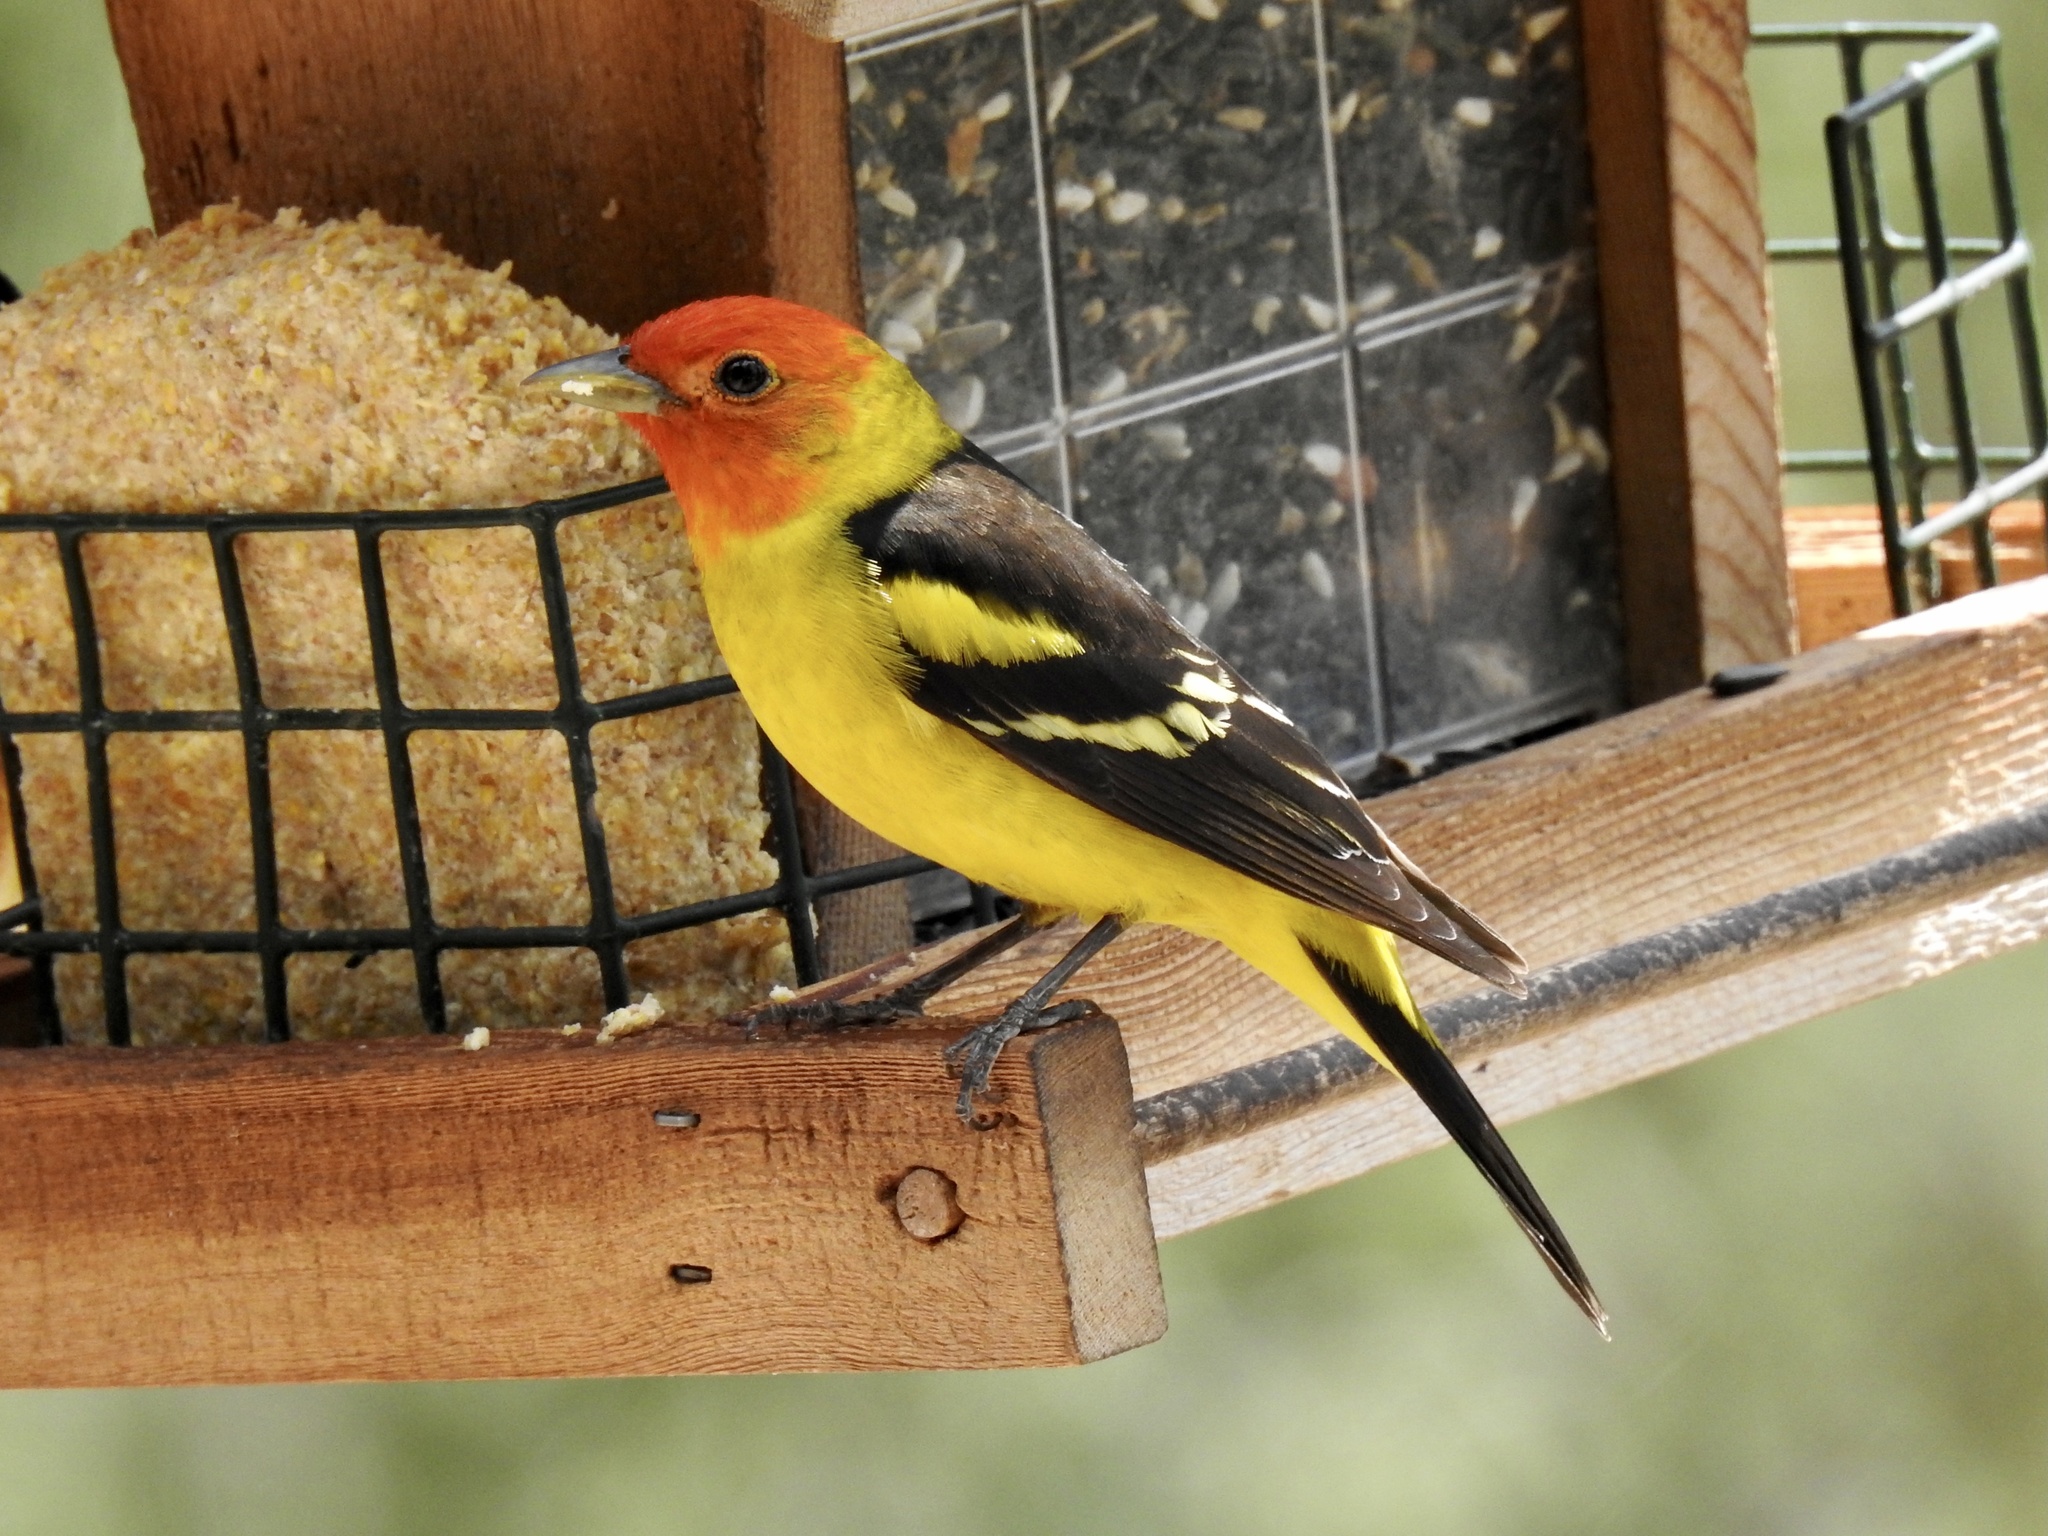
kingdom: Animalia
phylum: Chordata
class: Aves
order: Passeriformes
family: Cardinalidae
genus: Piranga
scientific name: Piranga ludoviciana
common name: Western tanager
